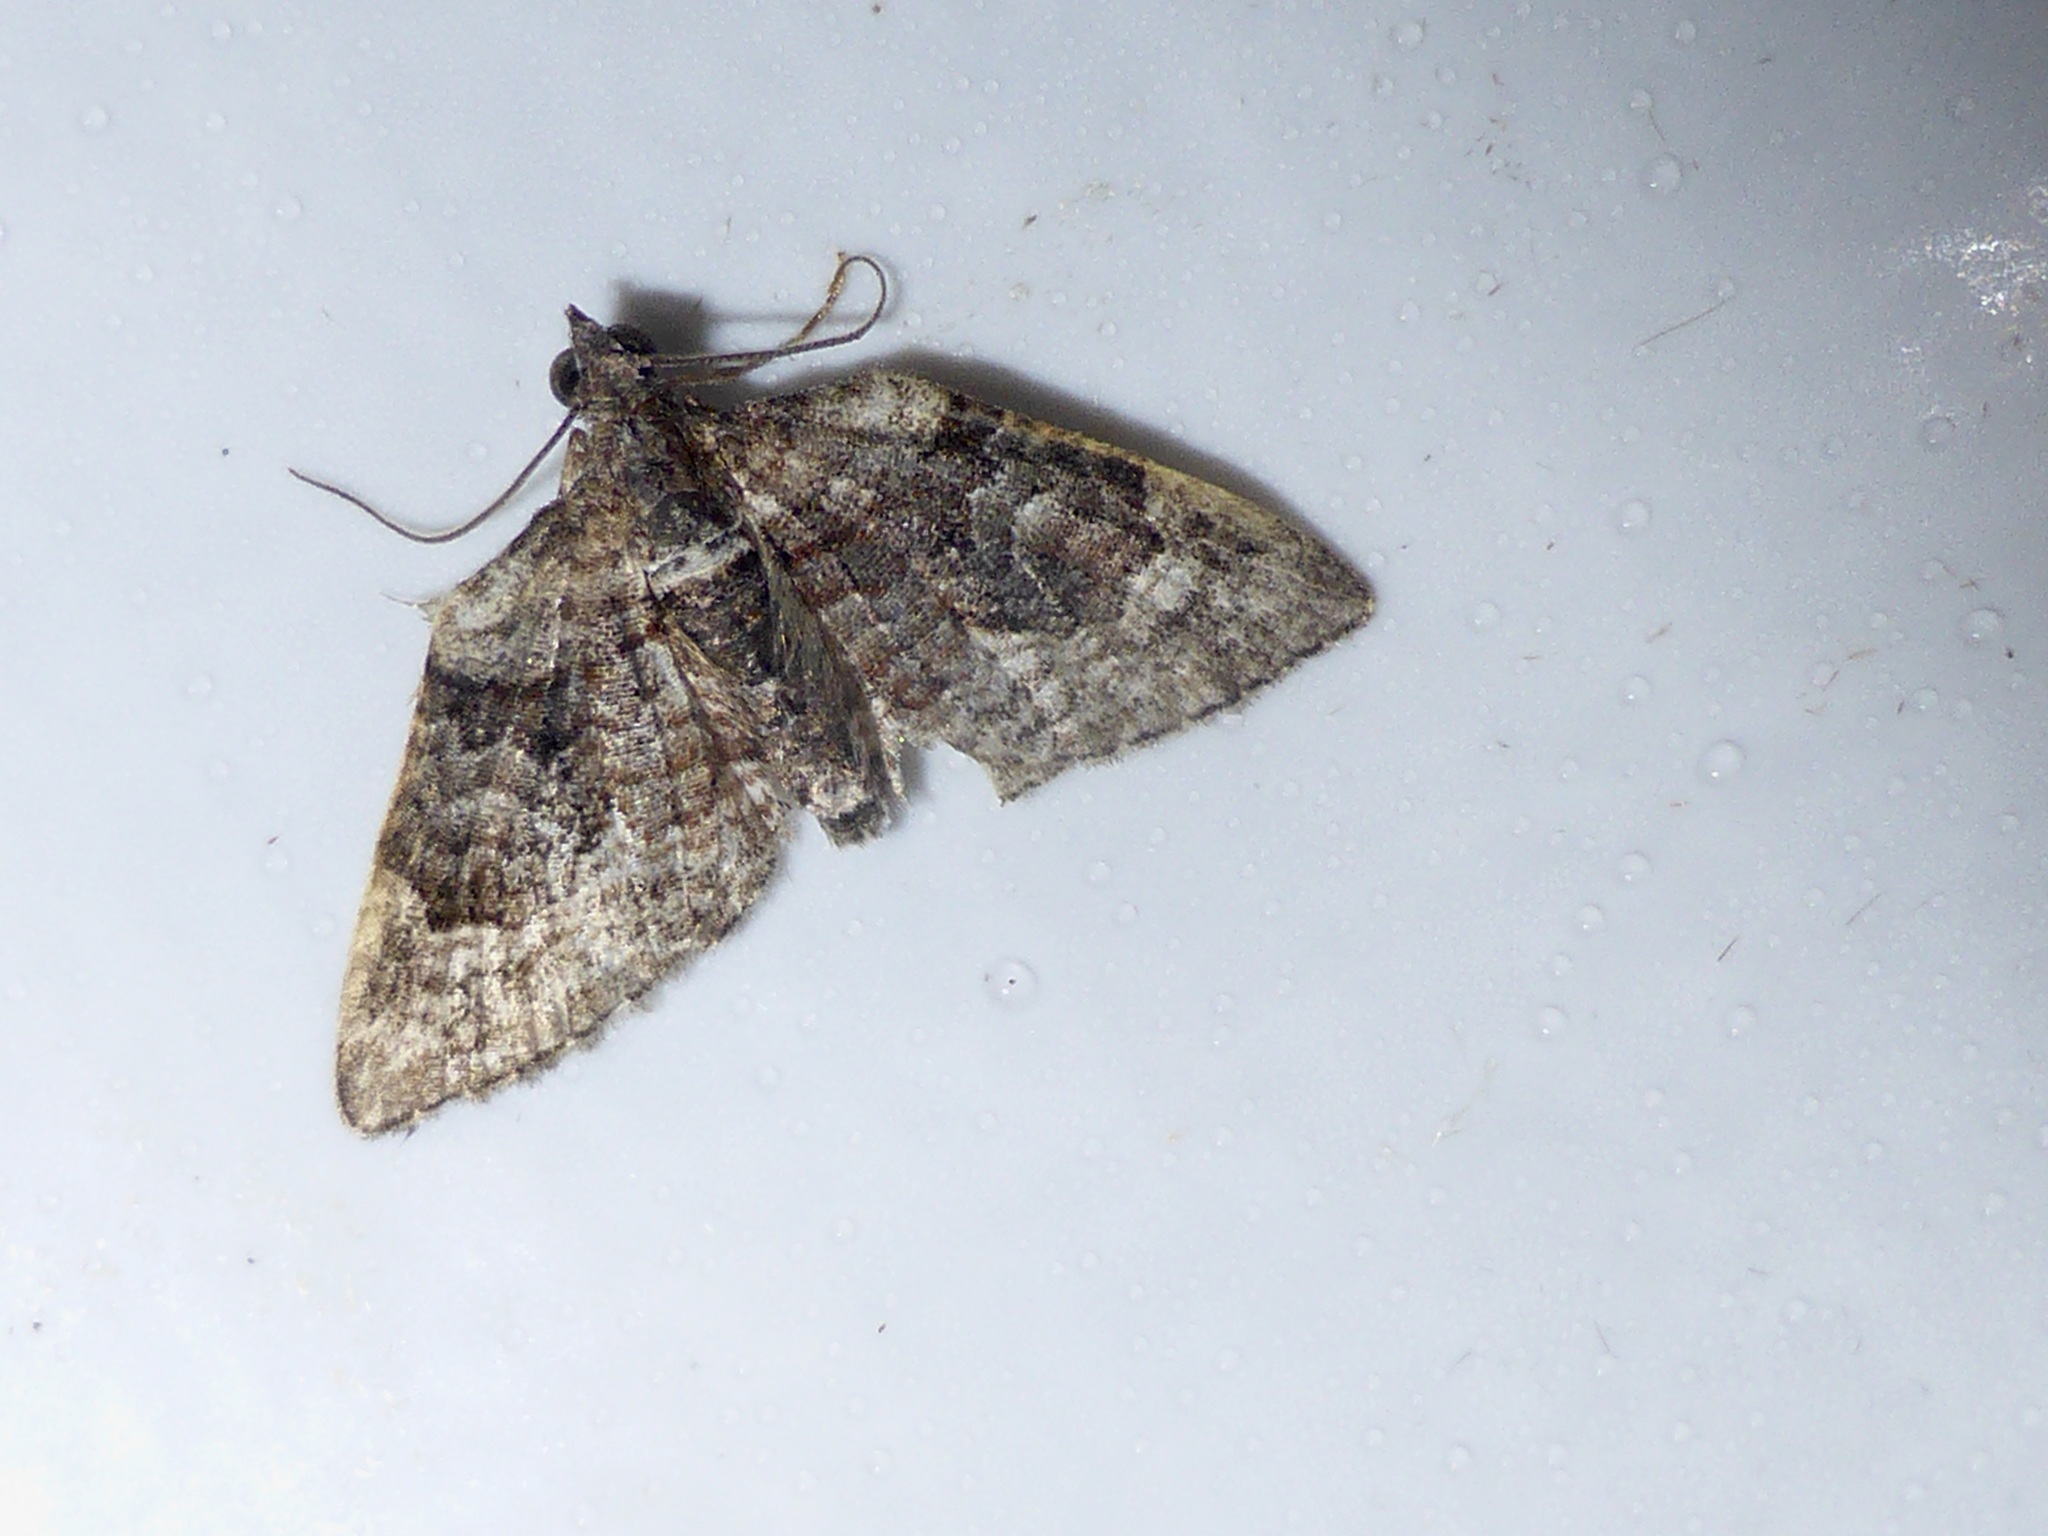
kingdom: Animalia
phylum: Arthropoda
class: Insecta
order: Lepidoptera
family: Geometridae
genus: Phrissogonus
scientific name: Phrissogonus laticostata
